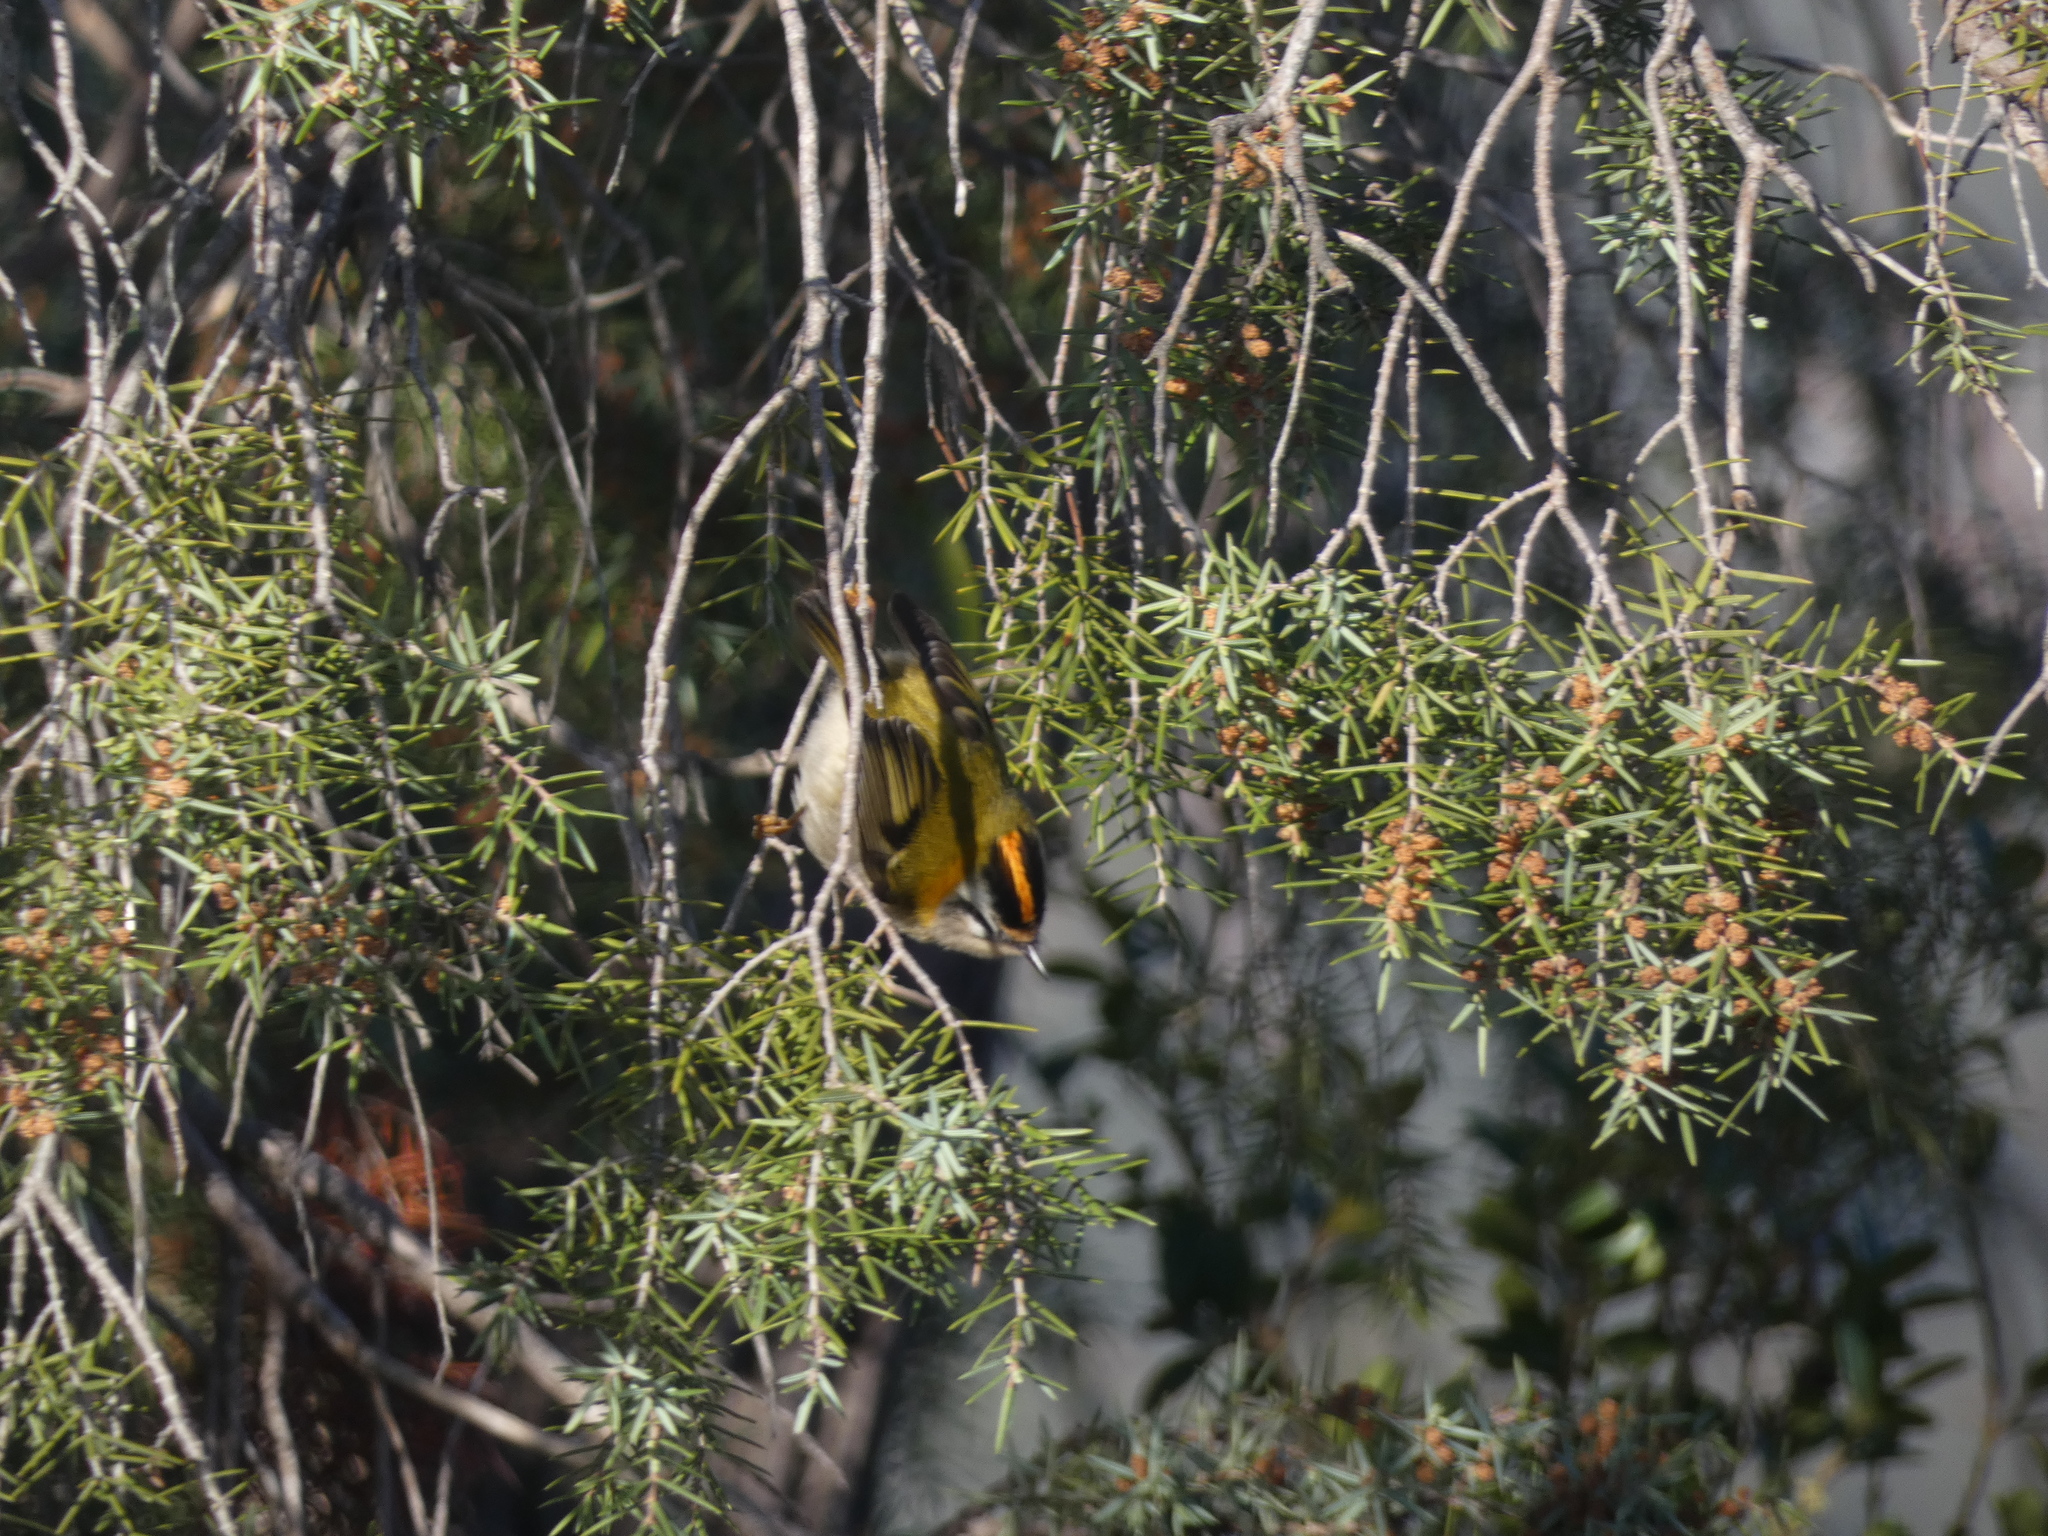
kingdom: Animalia
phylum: Chordata
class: Aves
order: Passeriformes
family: Regulidae
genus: Regulus
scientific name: Regulus ignicapilla
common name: Firecrest
